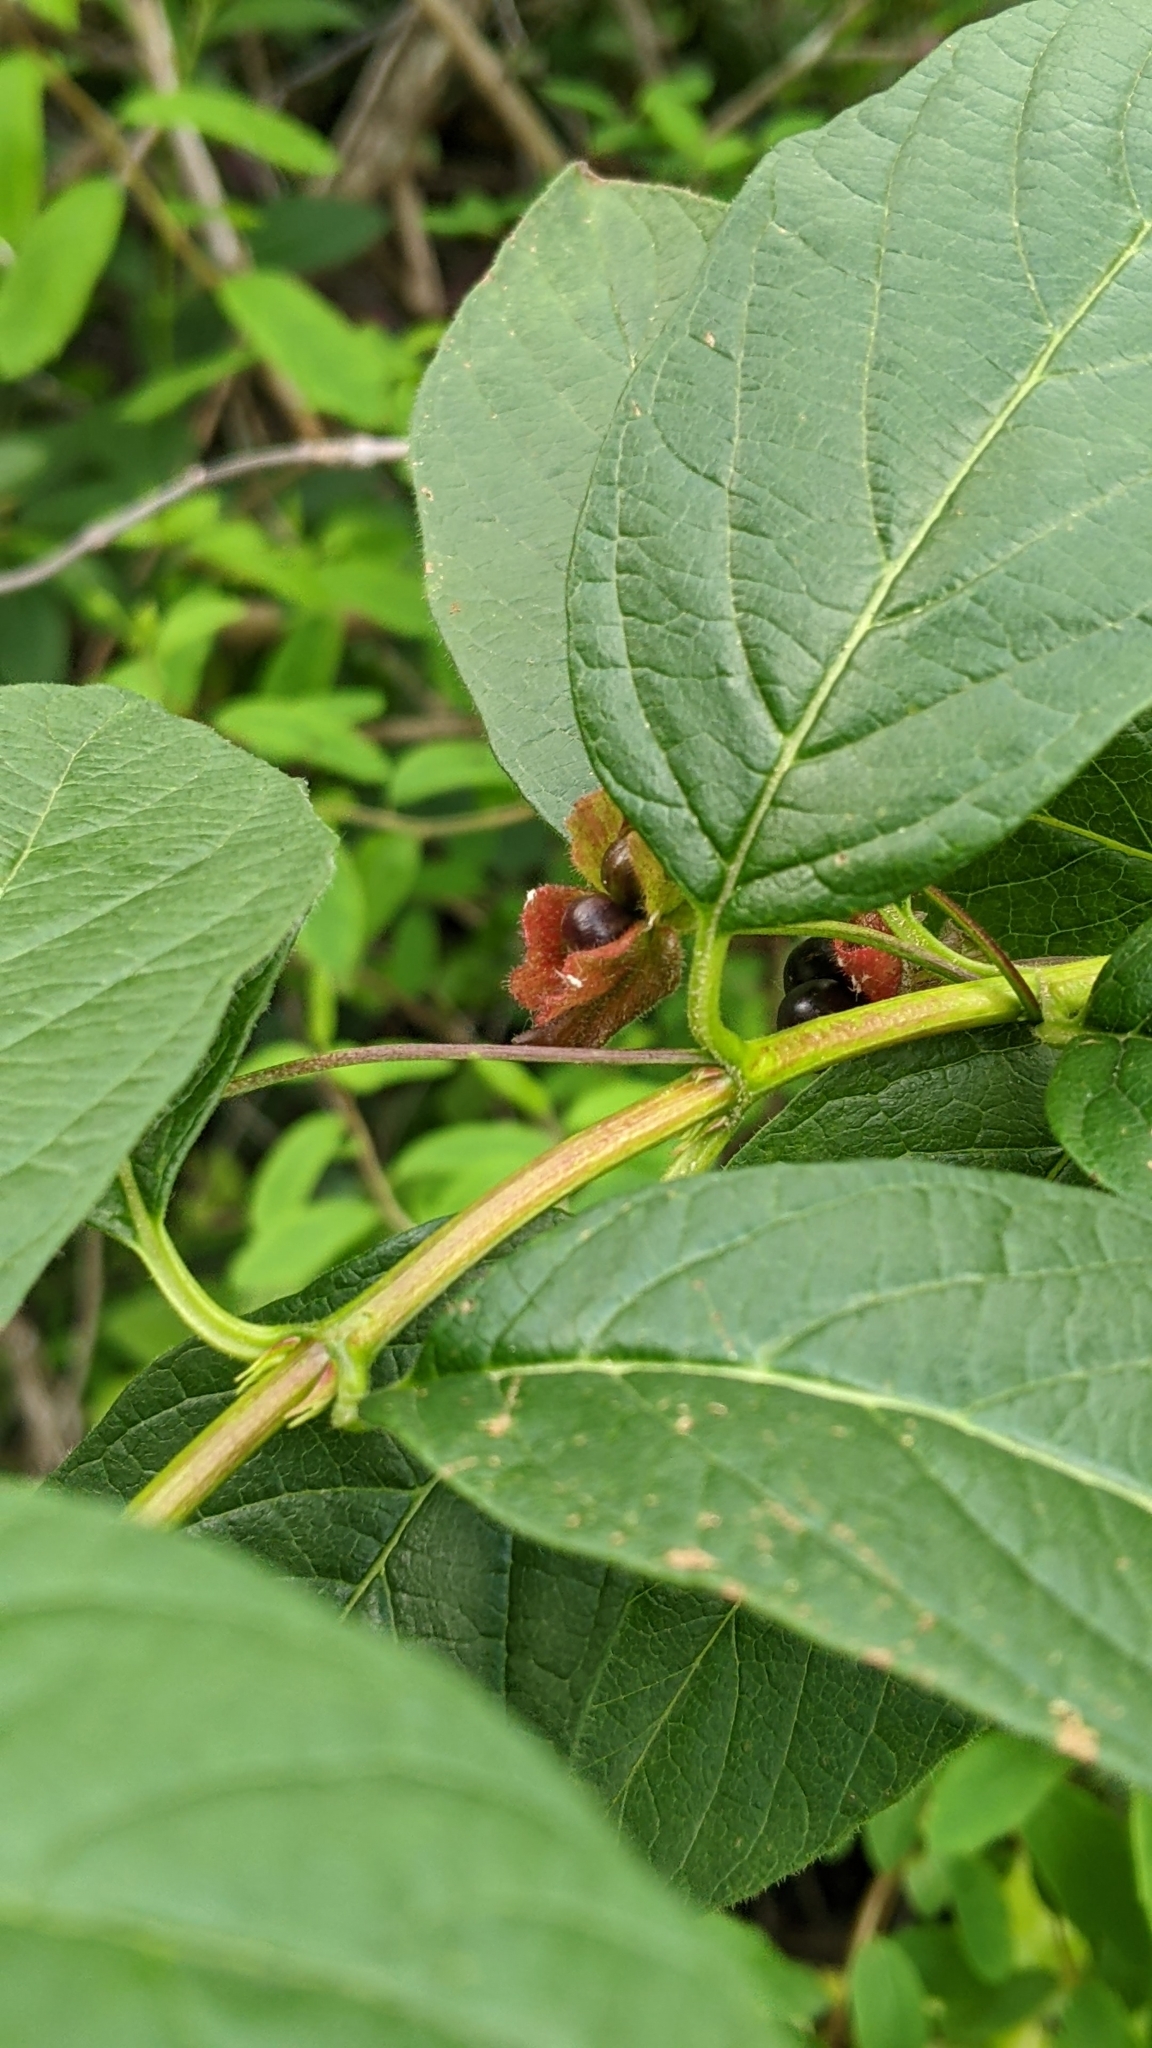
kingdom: Plantae
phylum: Tracheophyta
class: Magnoliopsida
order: Dipsacales
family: Caprifoliaceae
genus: Lonicera
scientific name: Lonicera involucrata
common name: Californian honeysuckle
